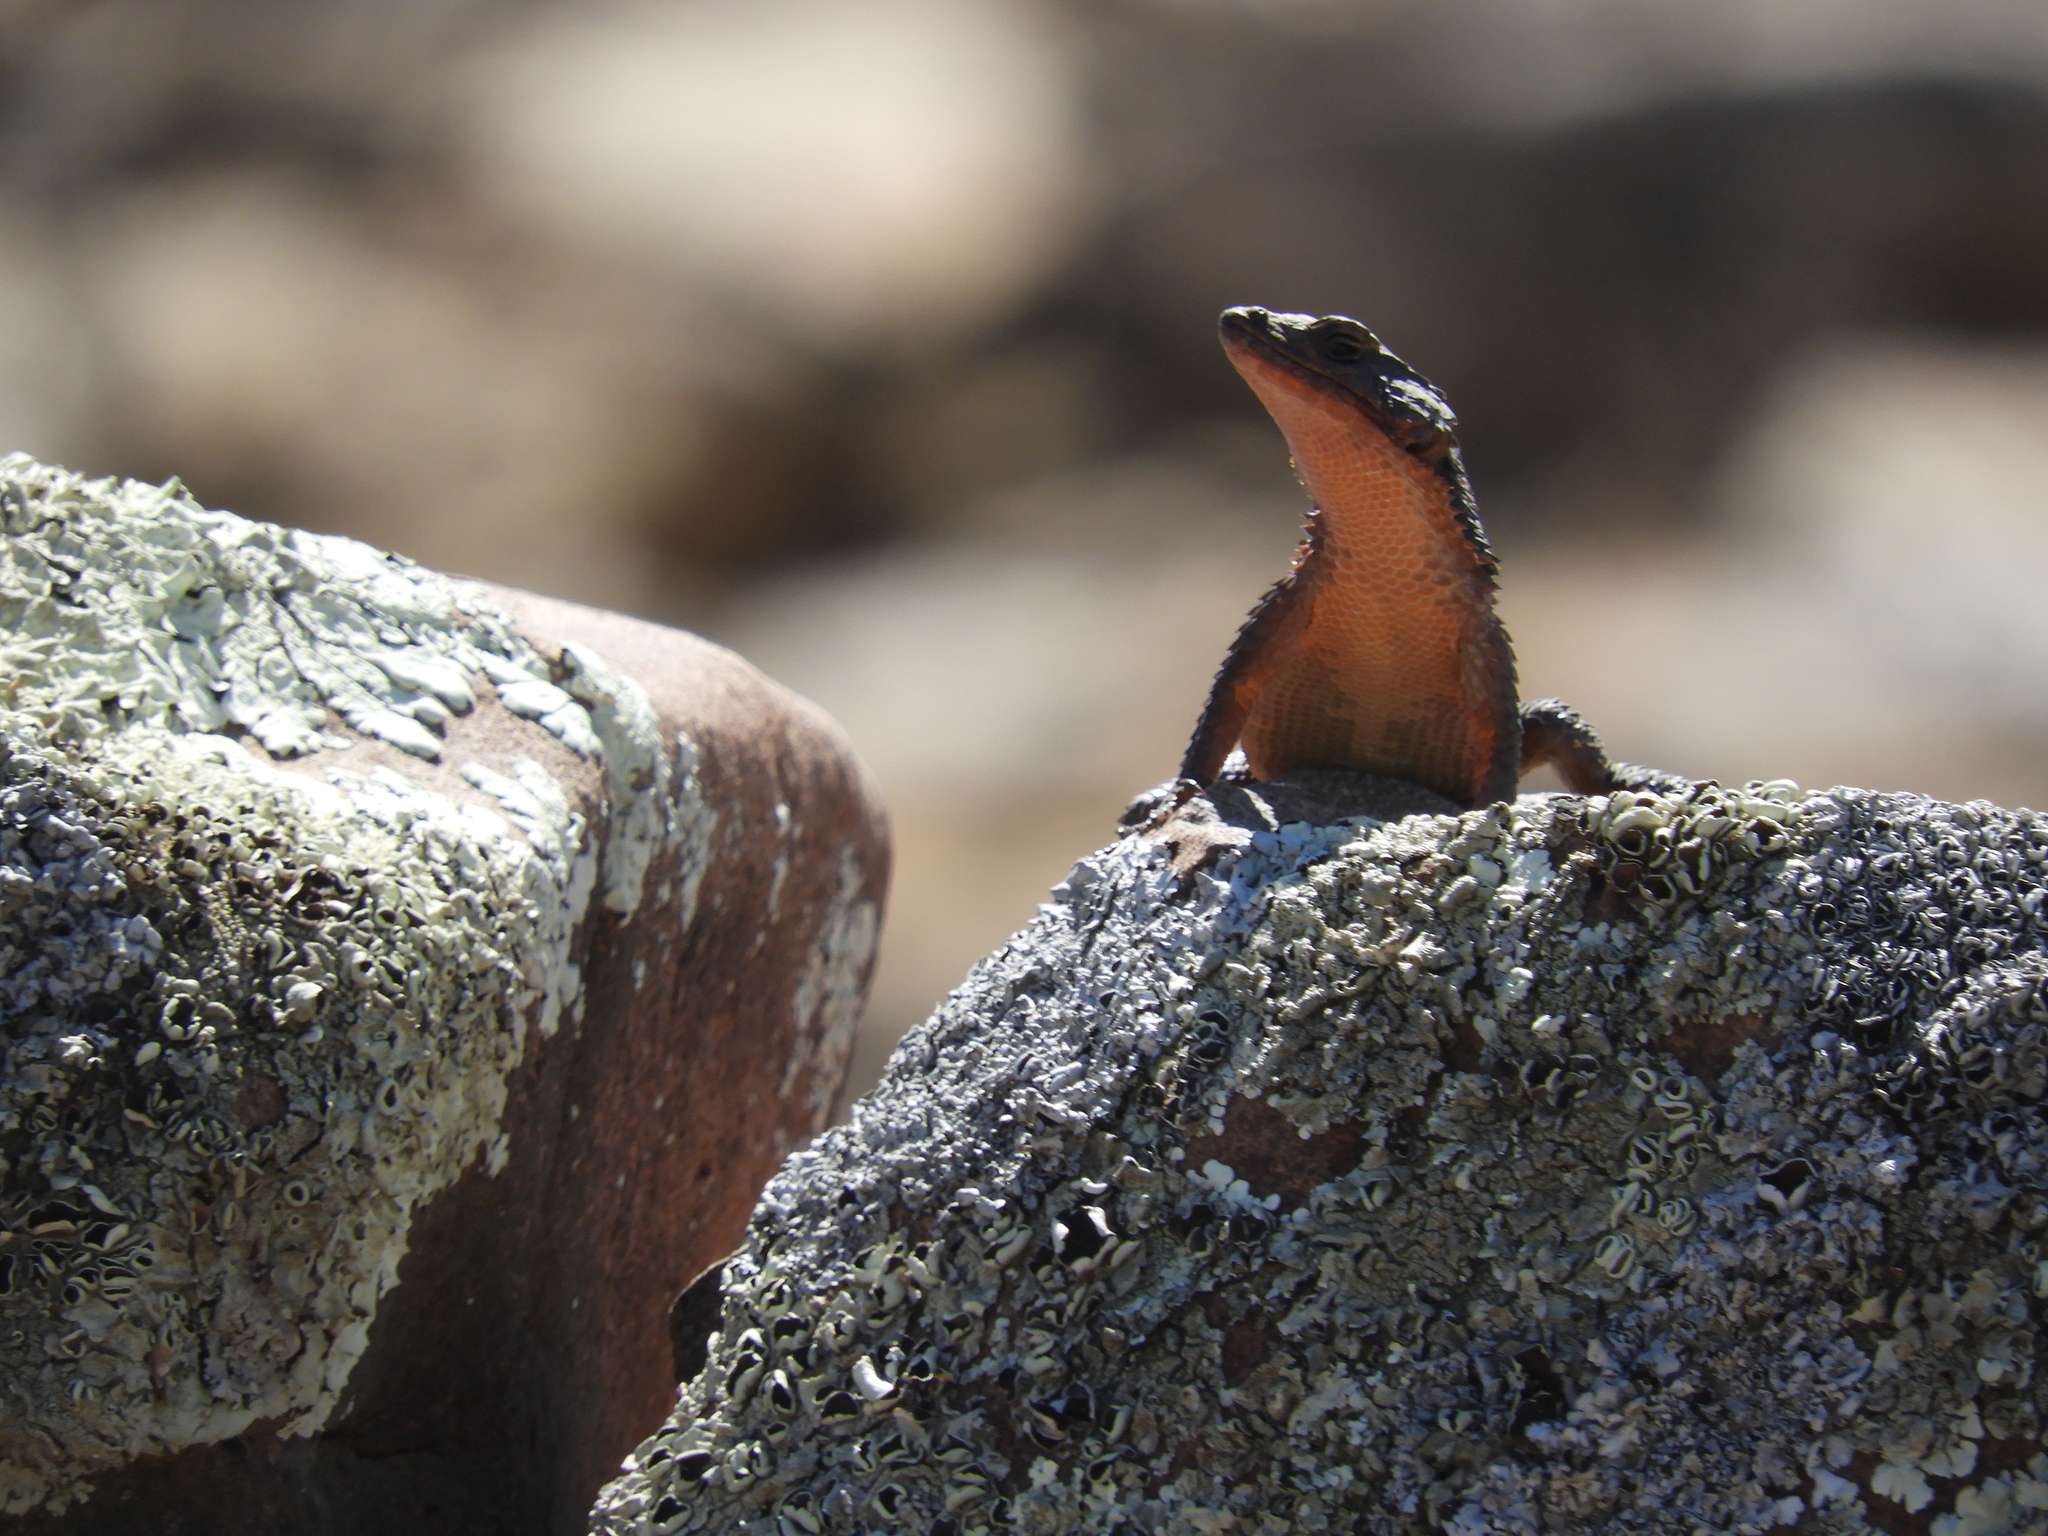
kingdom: Animalia
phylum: Chordata
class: Squamata
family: Cordylidae
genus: Karusasaurus
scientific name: Karusasaurus polyzonus
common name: Karoo girdled lizard
